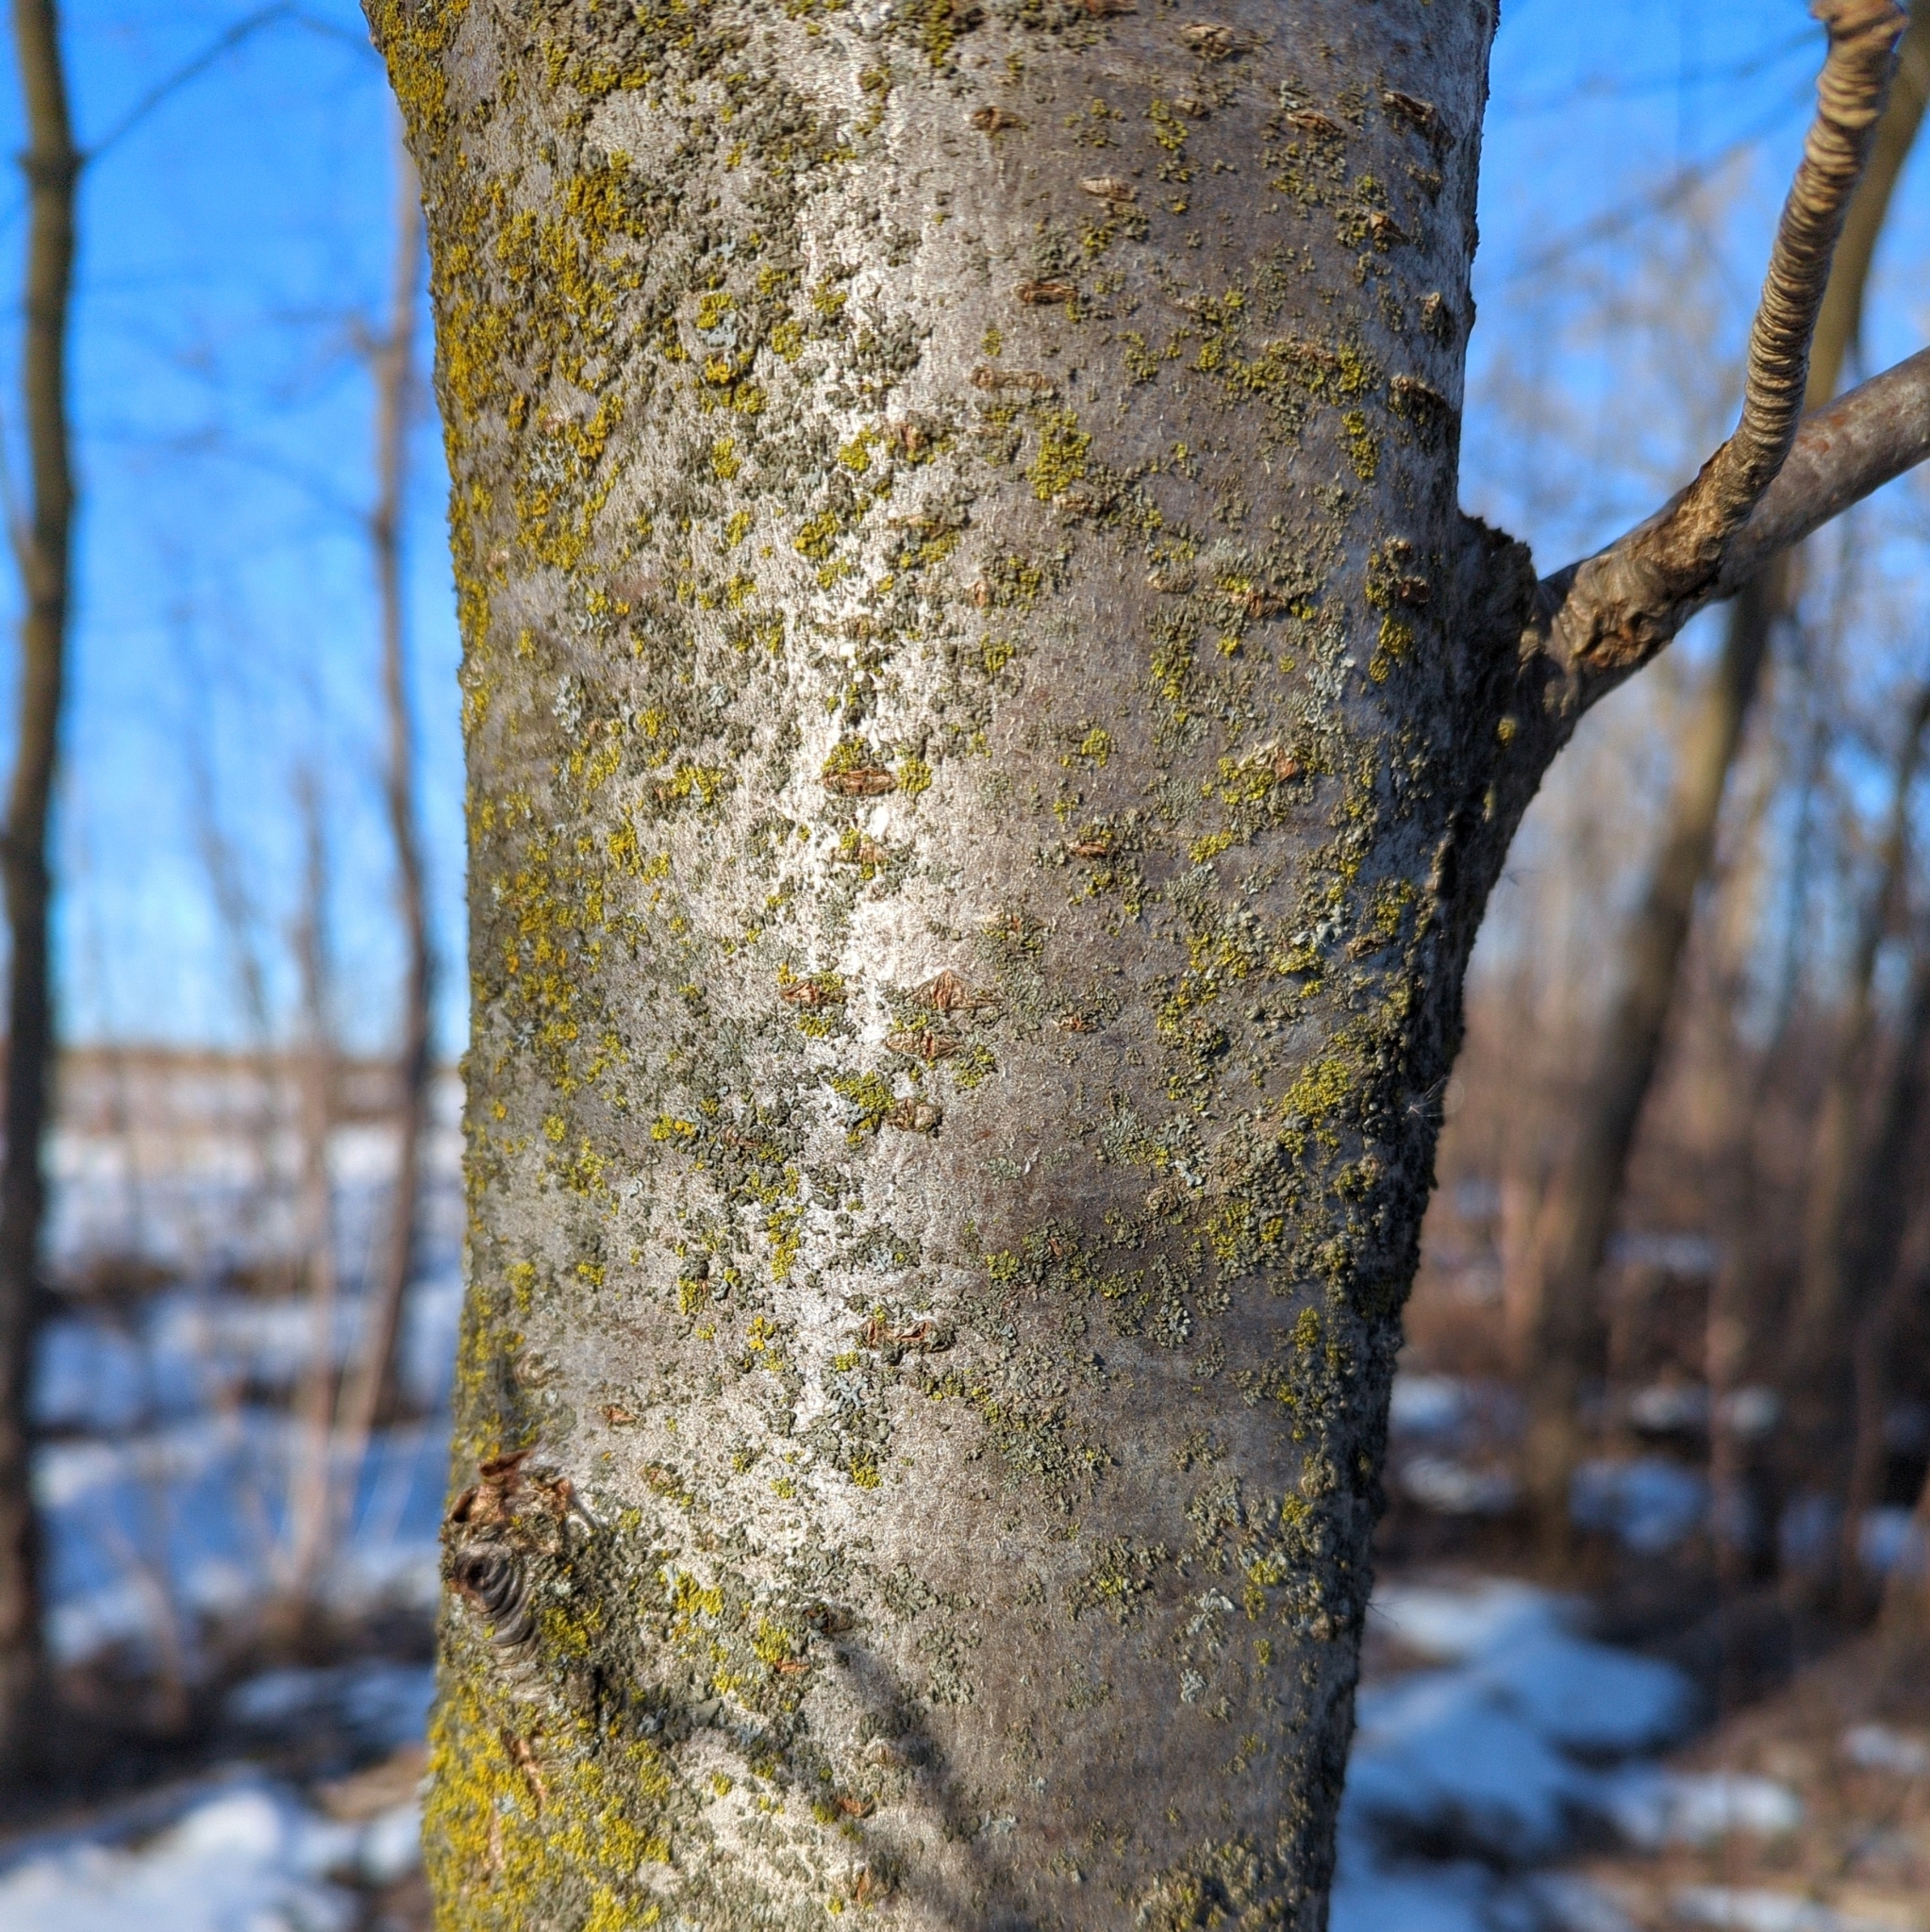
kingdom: Plantae
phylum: Tracheophyta
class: Magnoliopsida
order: Rosales
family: Rosaceae
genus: Sorbus
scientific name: Sorbus aucuparia
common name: Rowan
